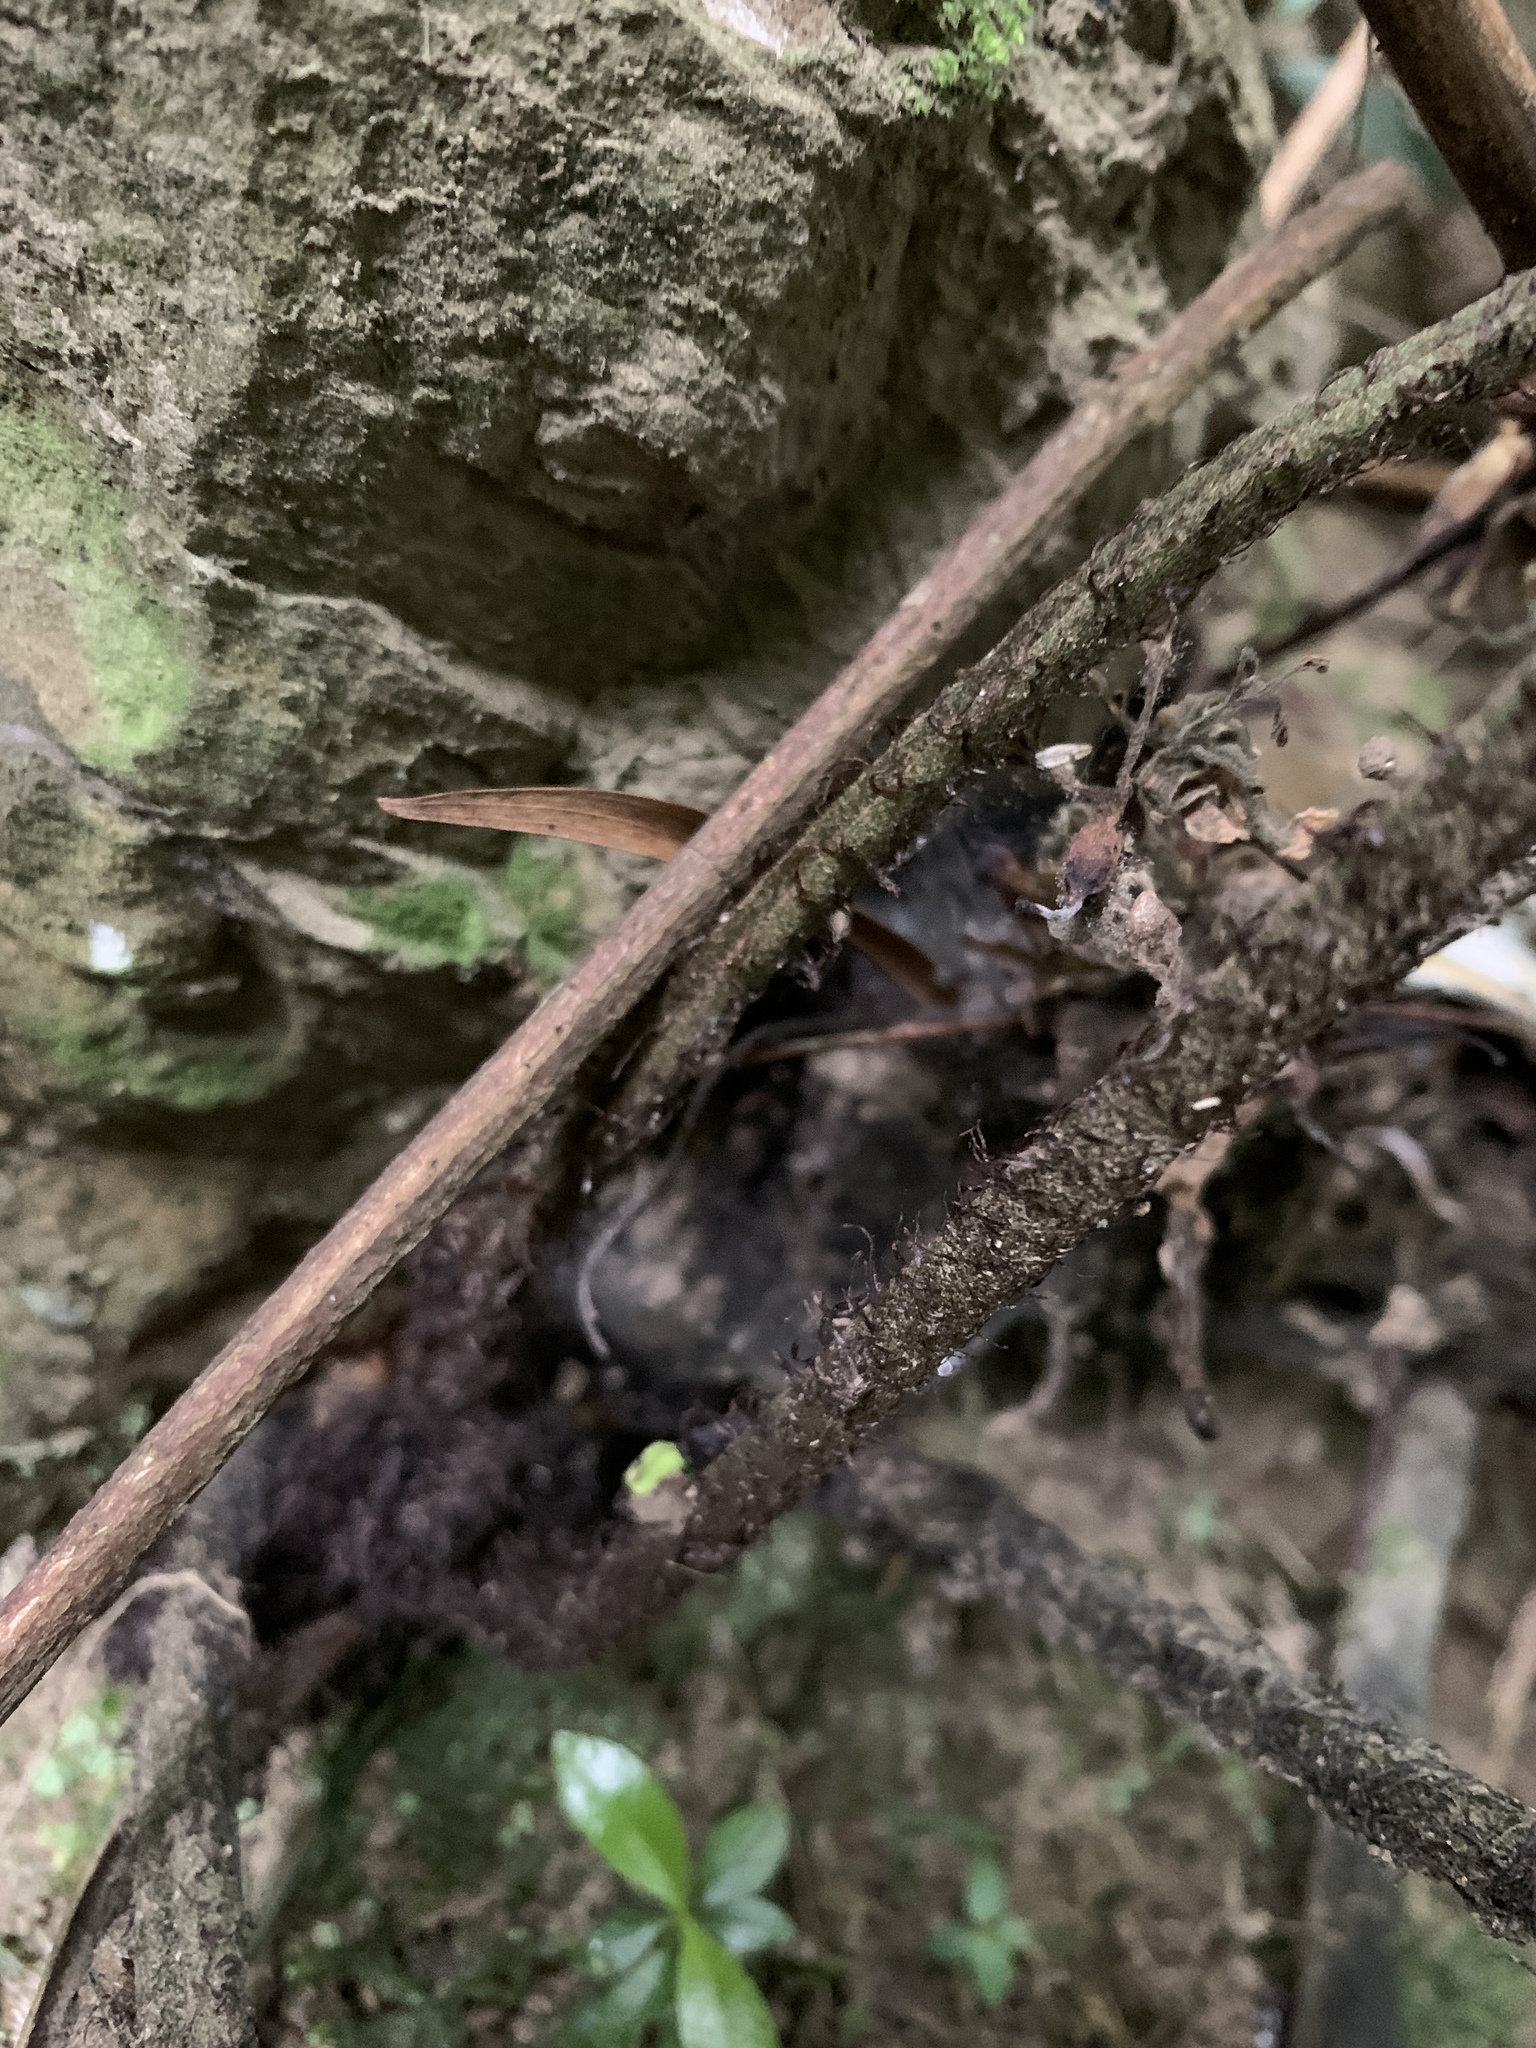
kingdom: Plantae
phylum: Tracheophyta
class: Polypodiopsida
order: Polypodiales
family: Athyriaceae
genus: Diplazium
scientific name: Diplazium taiwanense
